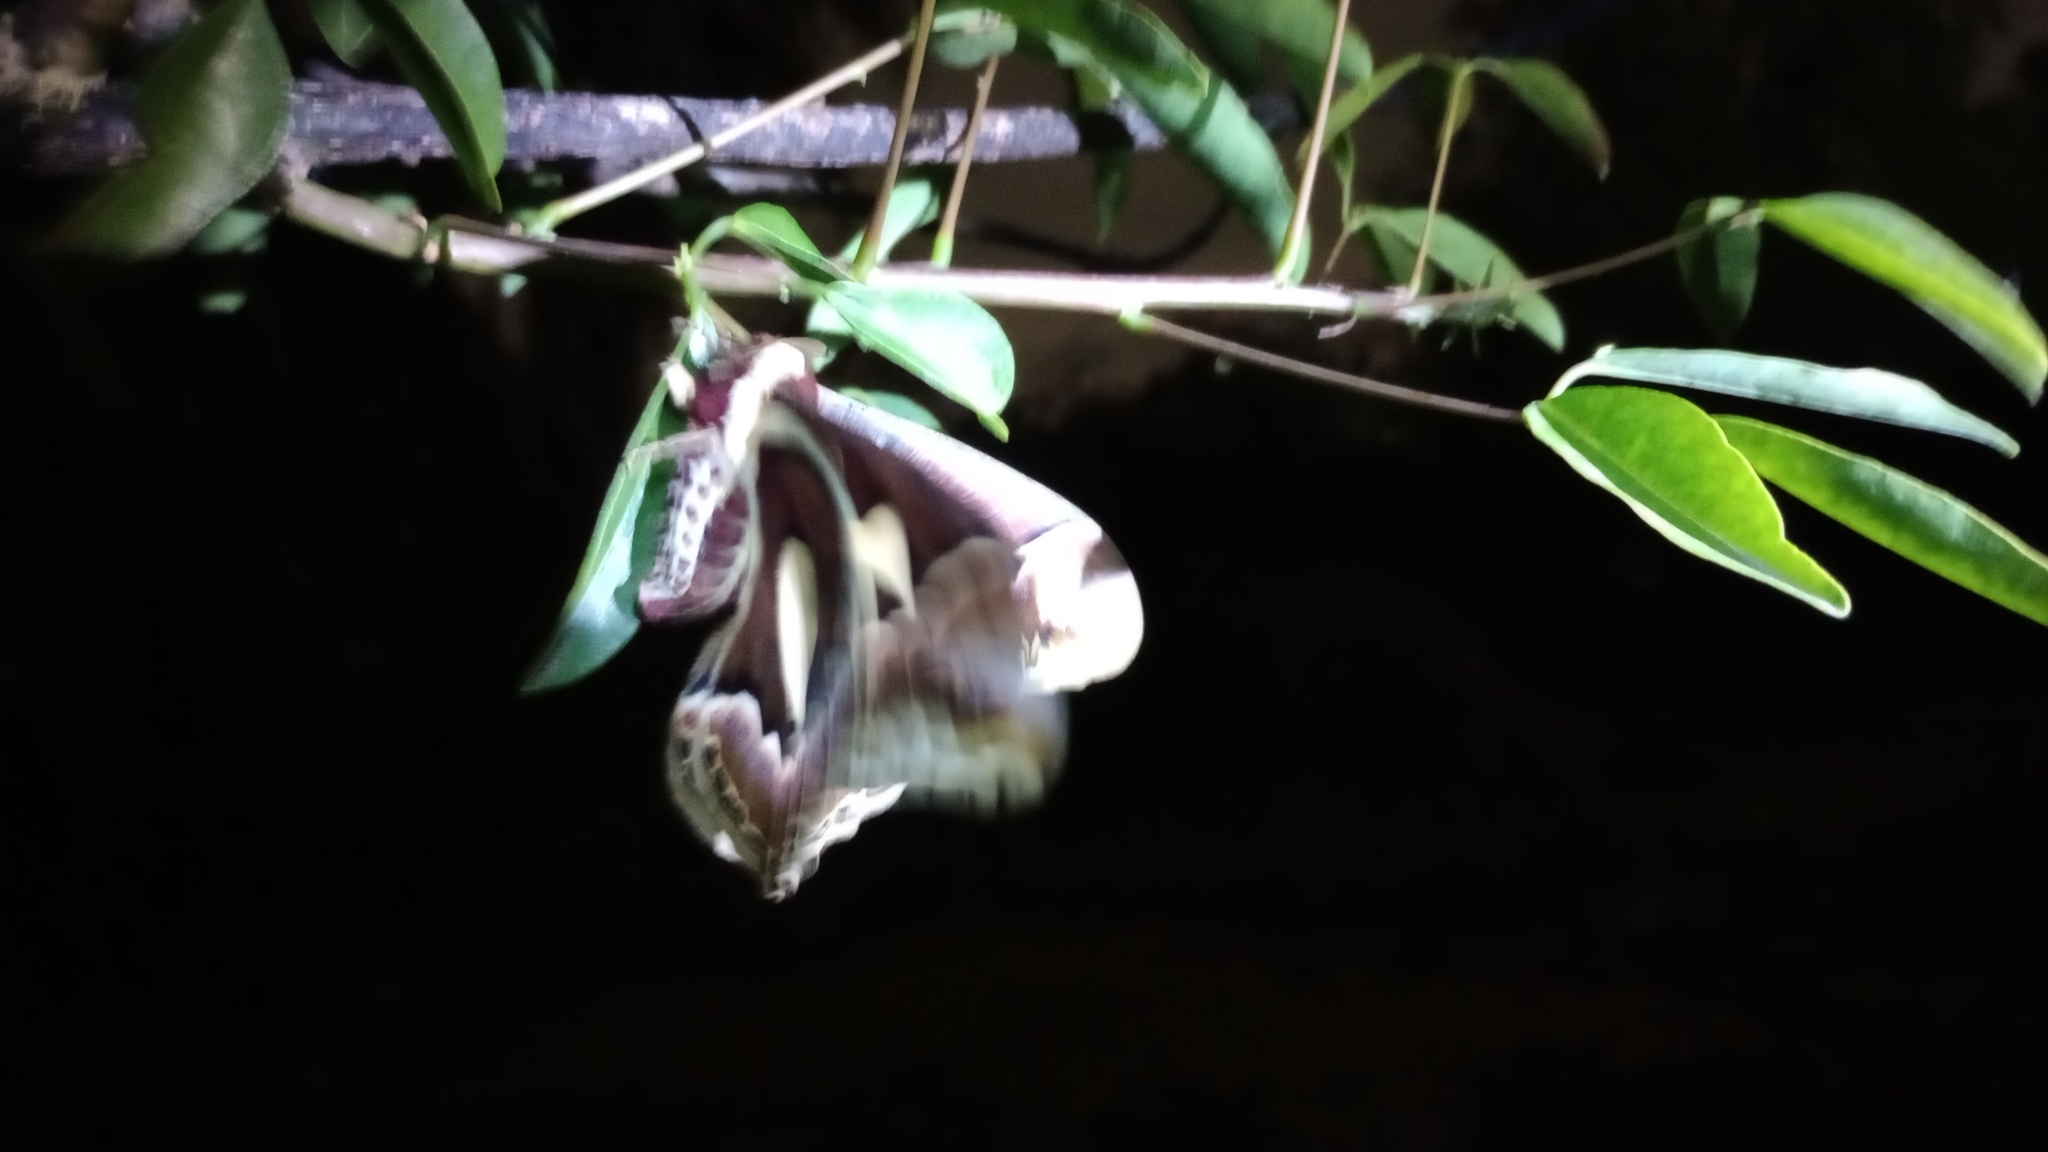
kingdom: Animalia
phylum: Arthropoda
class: Insecta
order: Lepidoptera
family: Saturniidae
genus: Rothschildia
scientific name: Rothschildia jacobaeae
